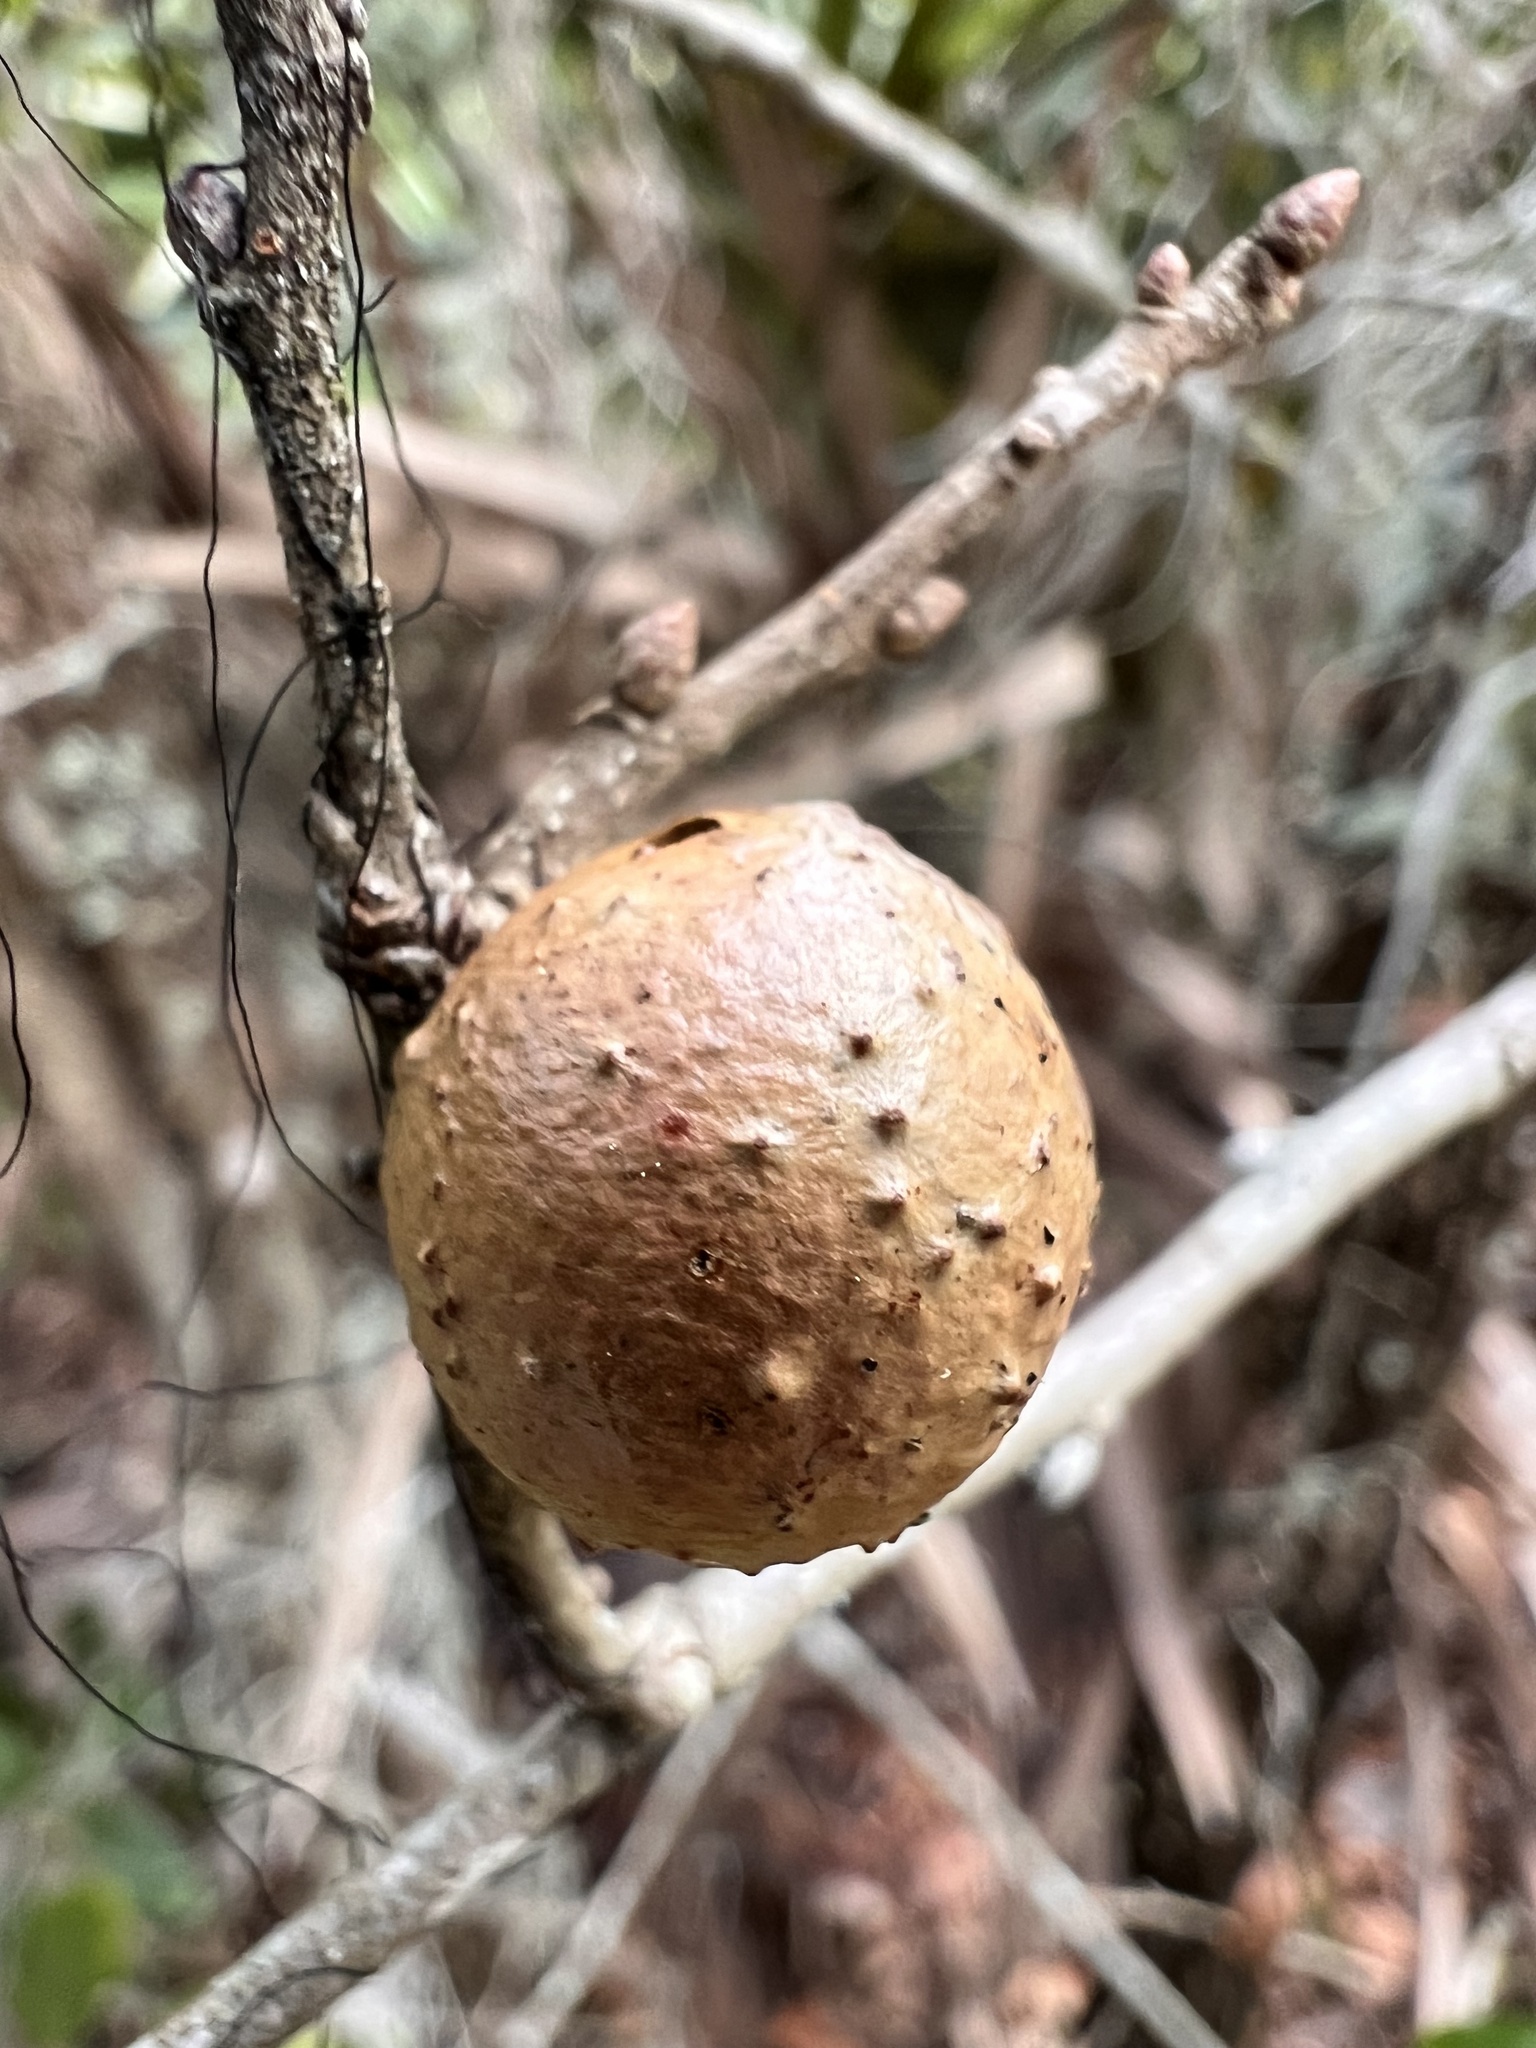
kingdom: Animalia
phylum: Arthropoda
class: Insecta
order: Hymenoptera
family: Cynipidae
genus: Disholcaspis
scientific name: Disholcaspis
